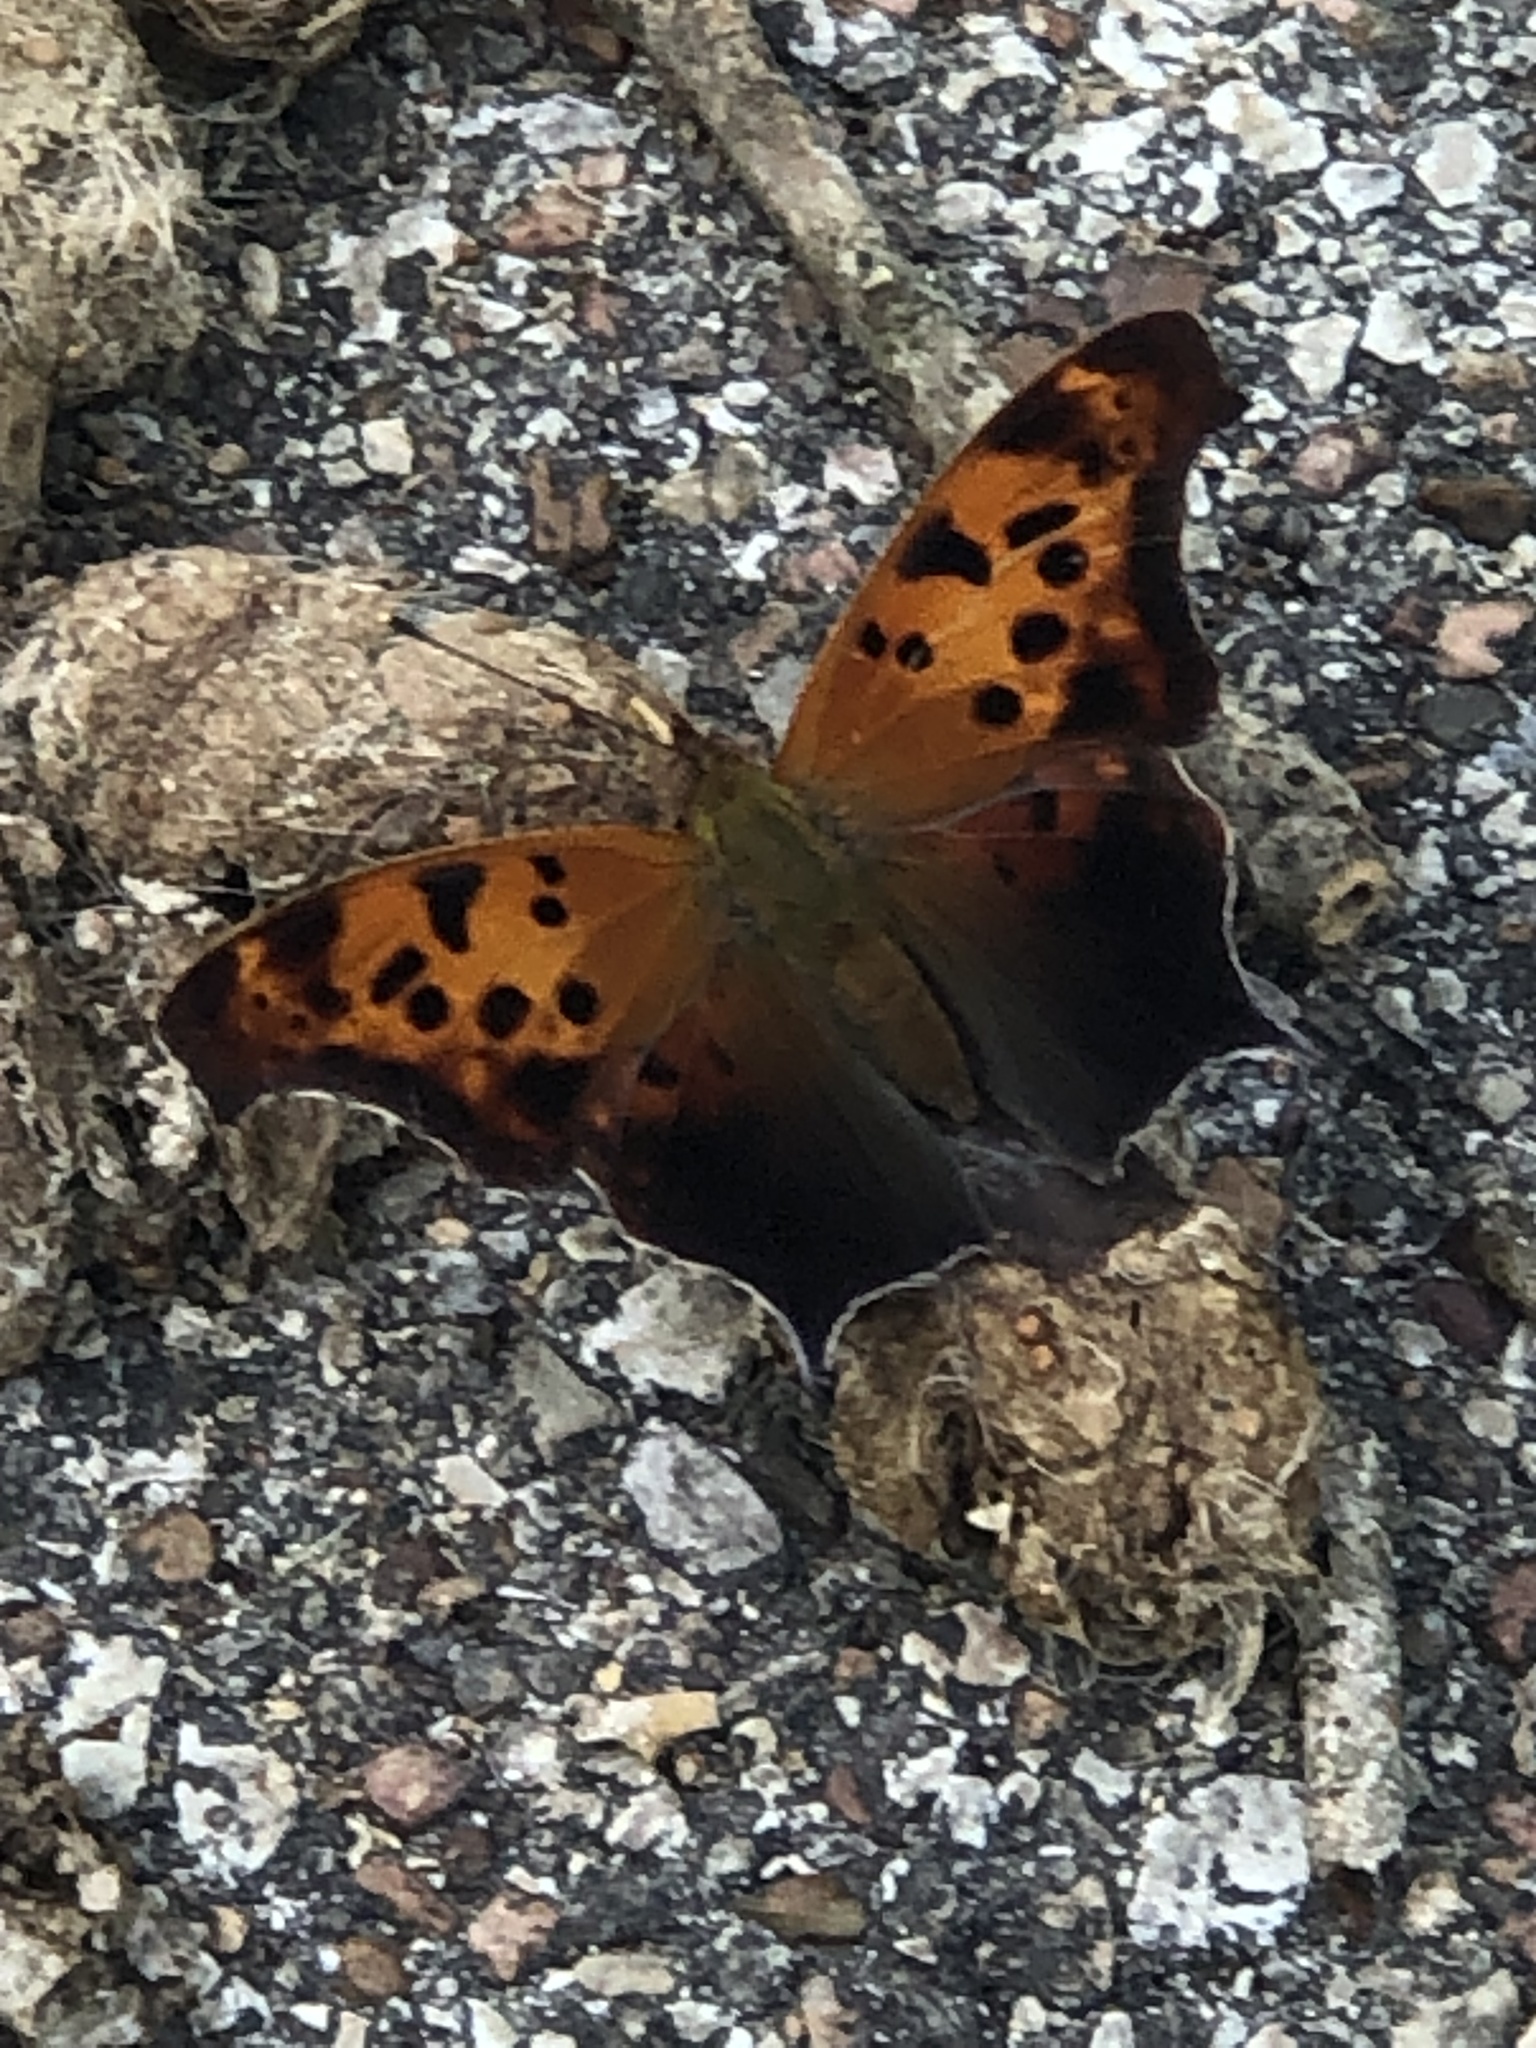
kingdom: Animalia
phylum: Arthropoda
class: Insecta
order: Lepidoptera
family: Nymphalidae
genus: Polygonia
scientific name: Polygonia interrogationis
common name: Question mark
